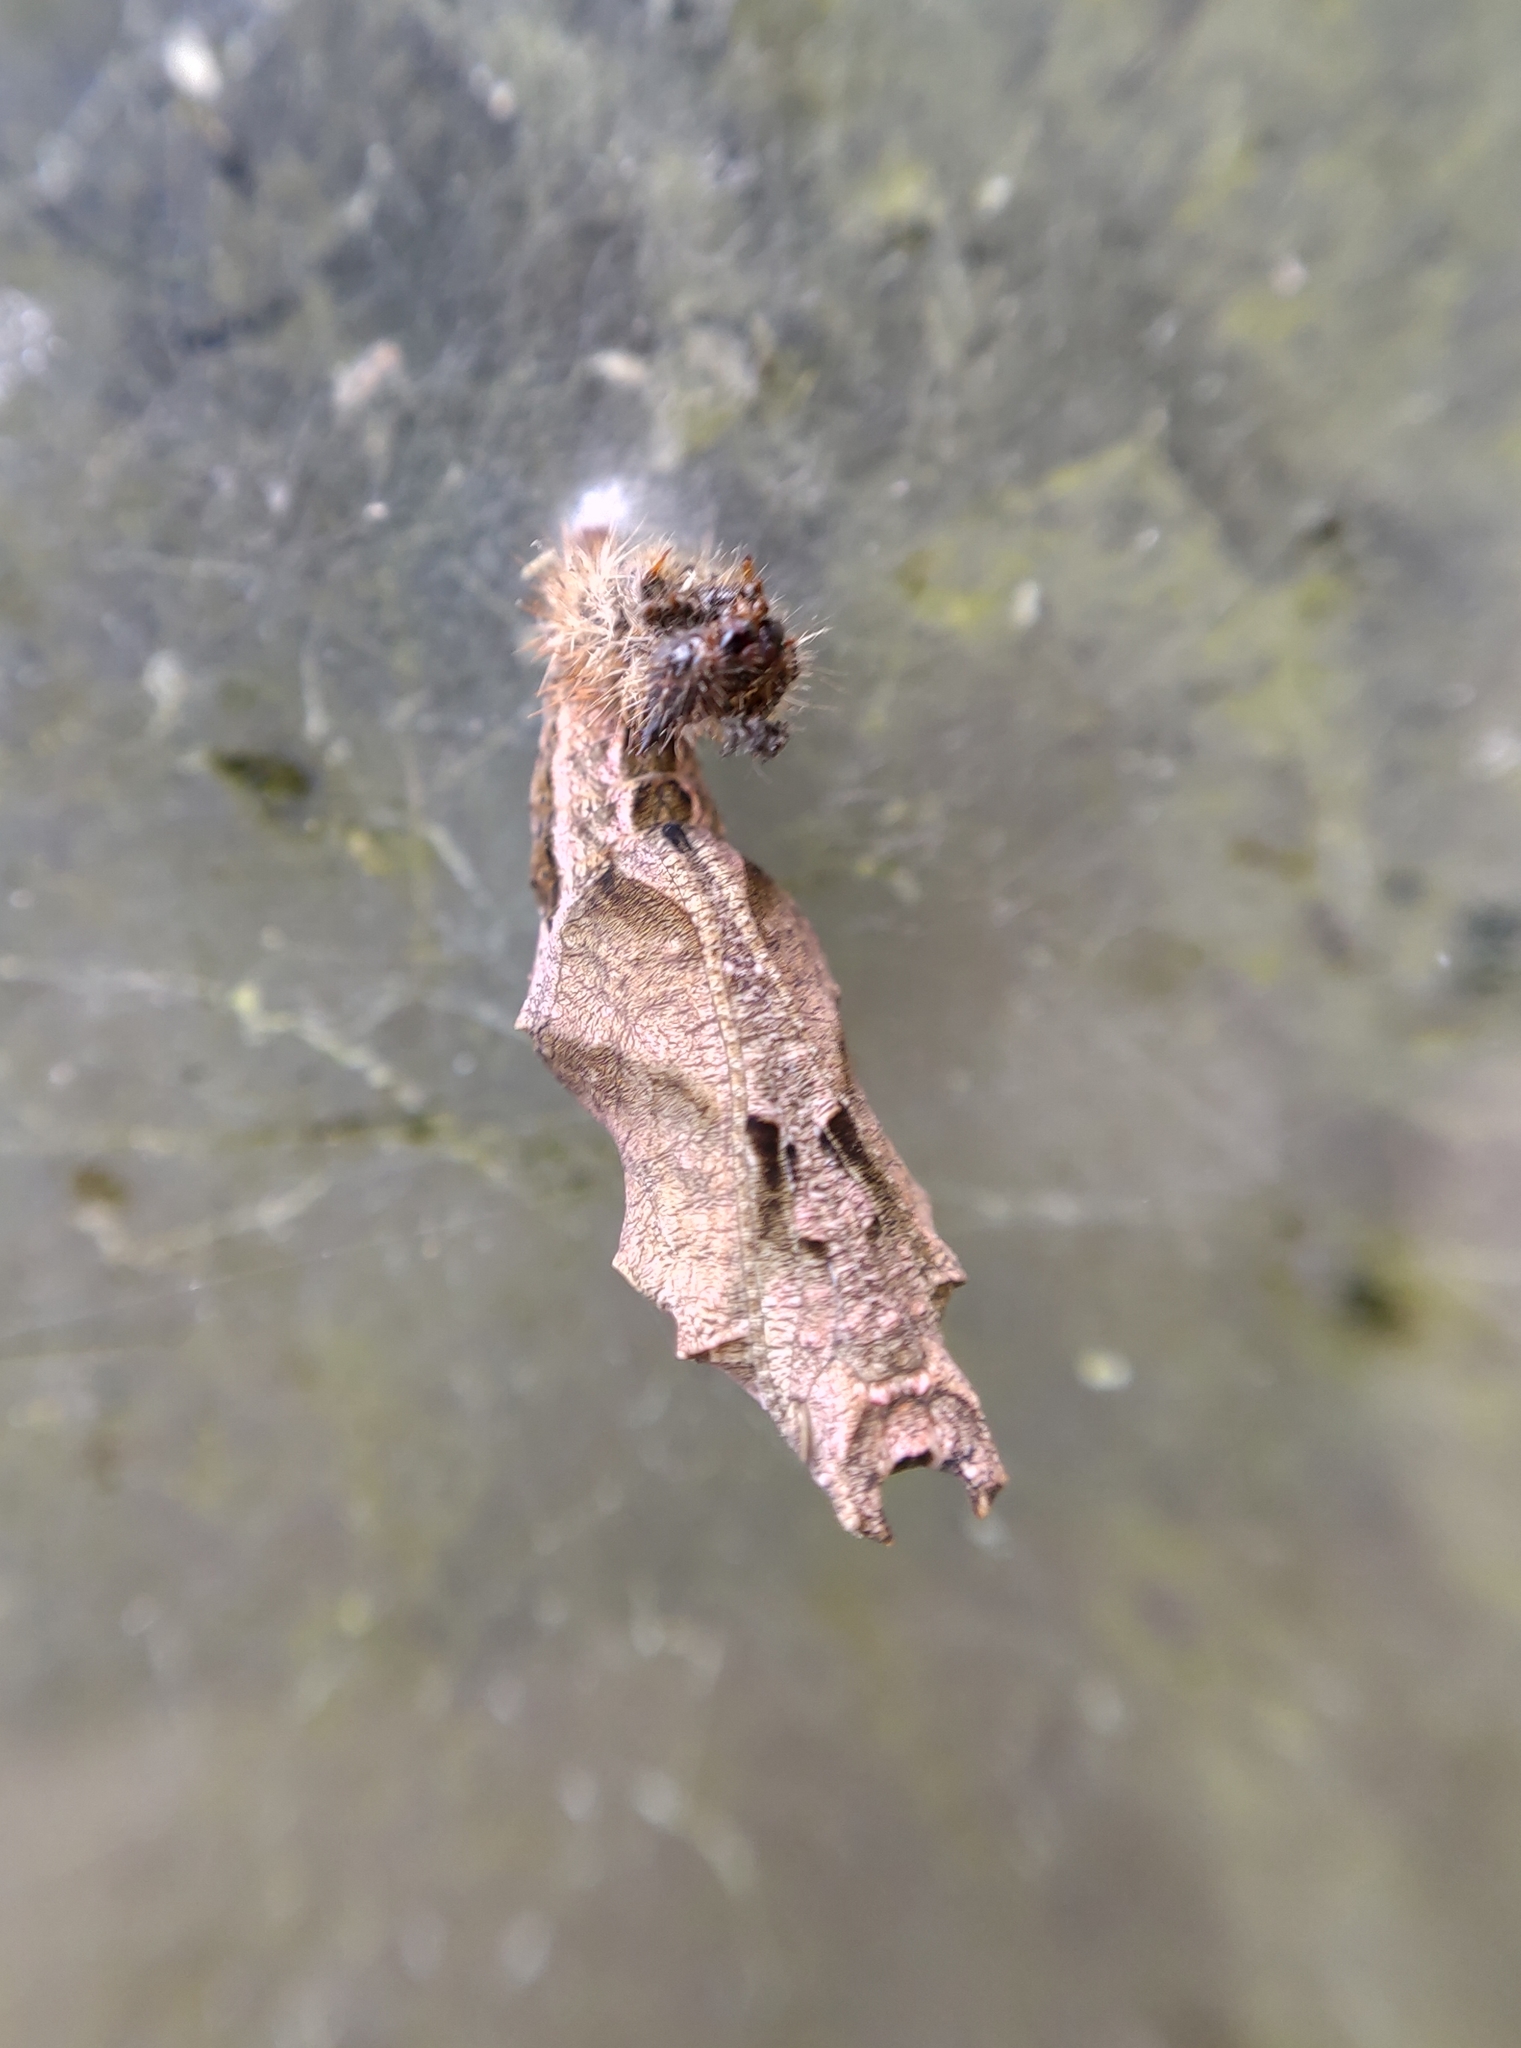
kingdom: Animalia
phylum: Arthropoda
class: Insecta
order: Lepidoptera
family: Nymphalidae
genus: Polygonia
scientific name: Polygonia c-album
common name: Comma
